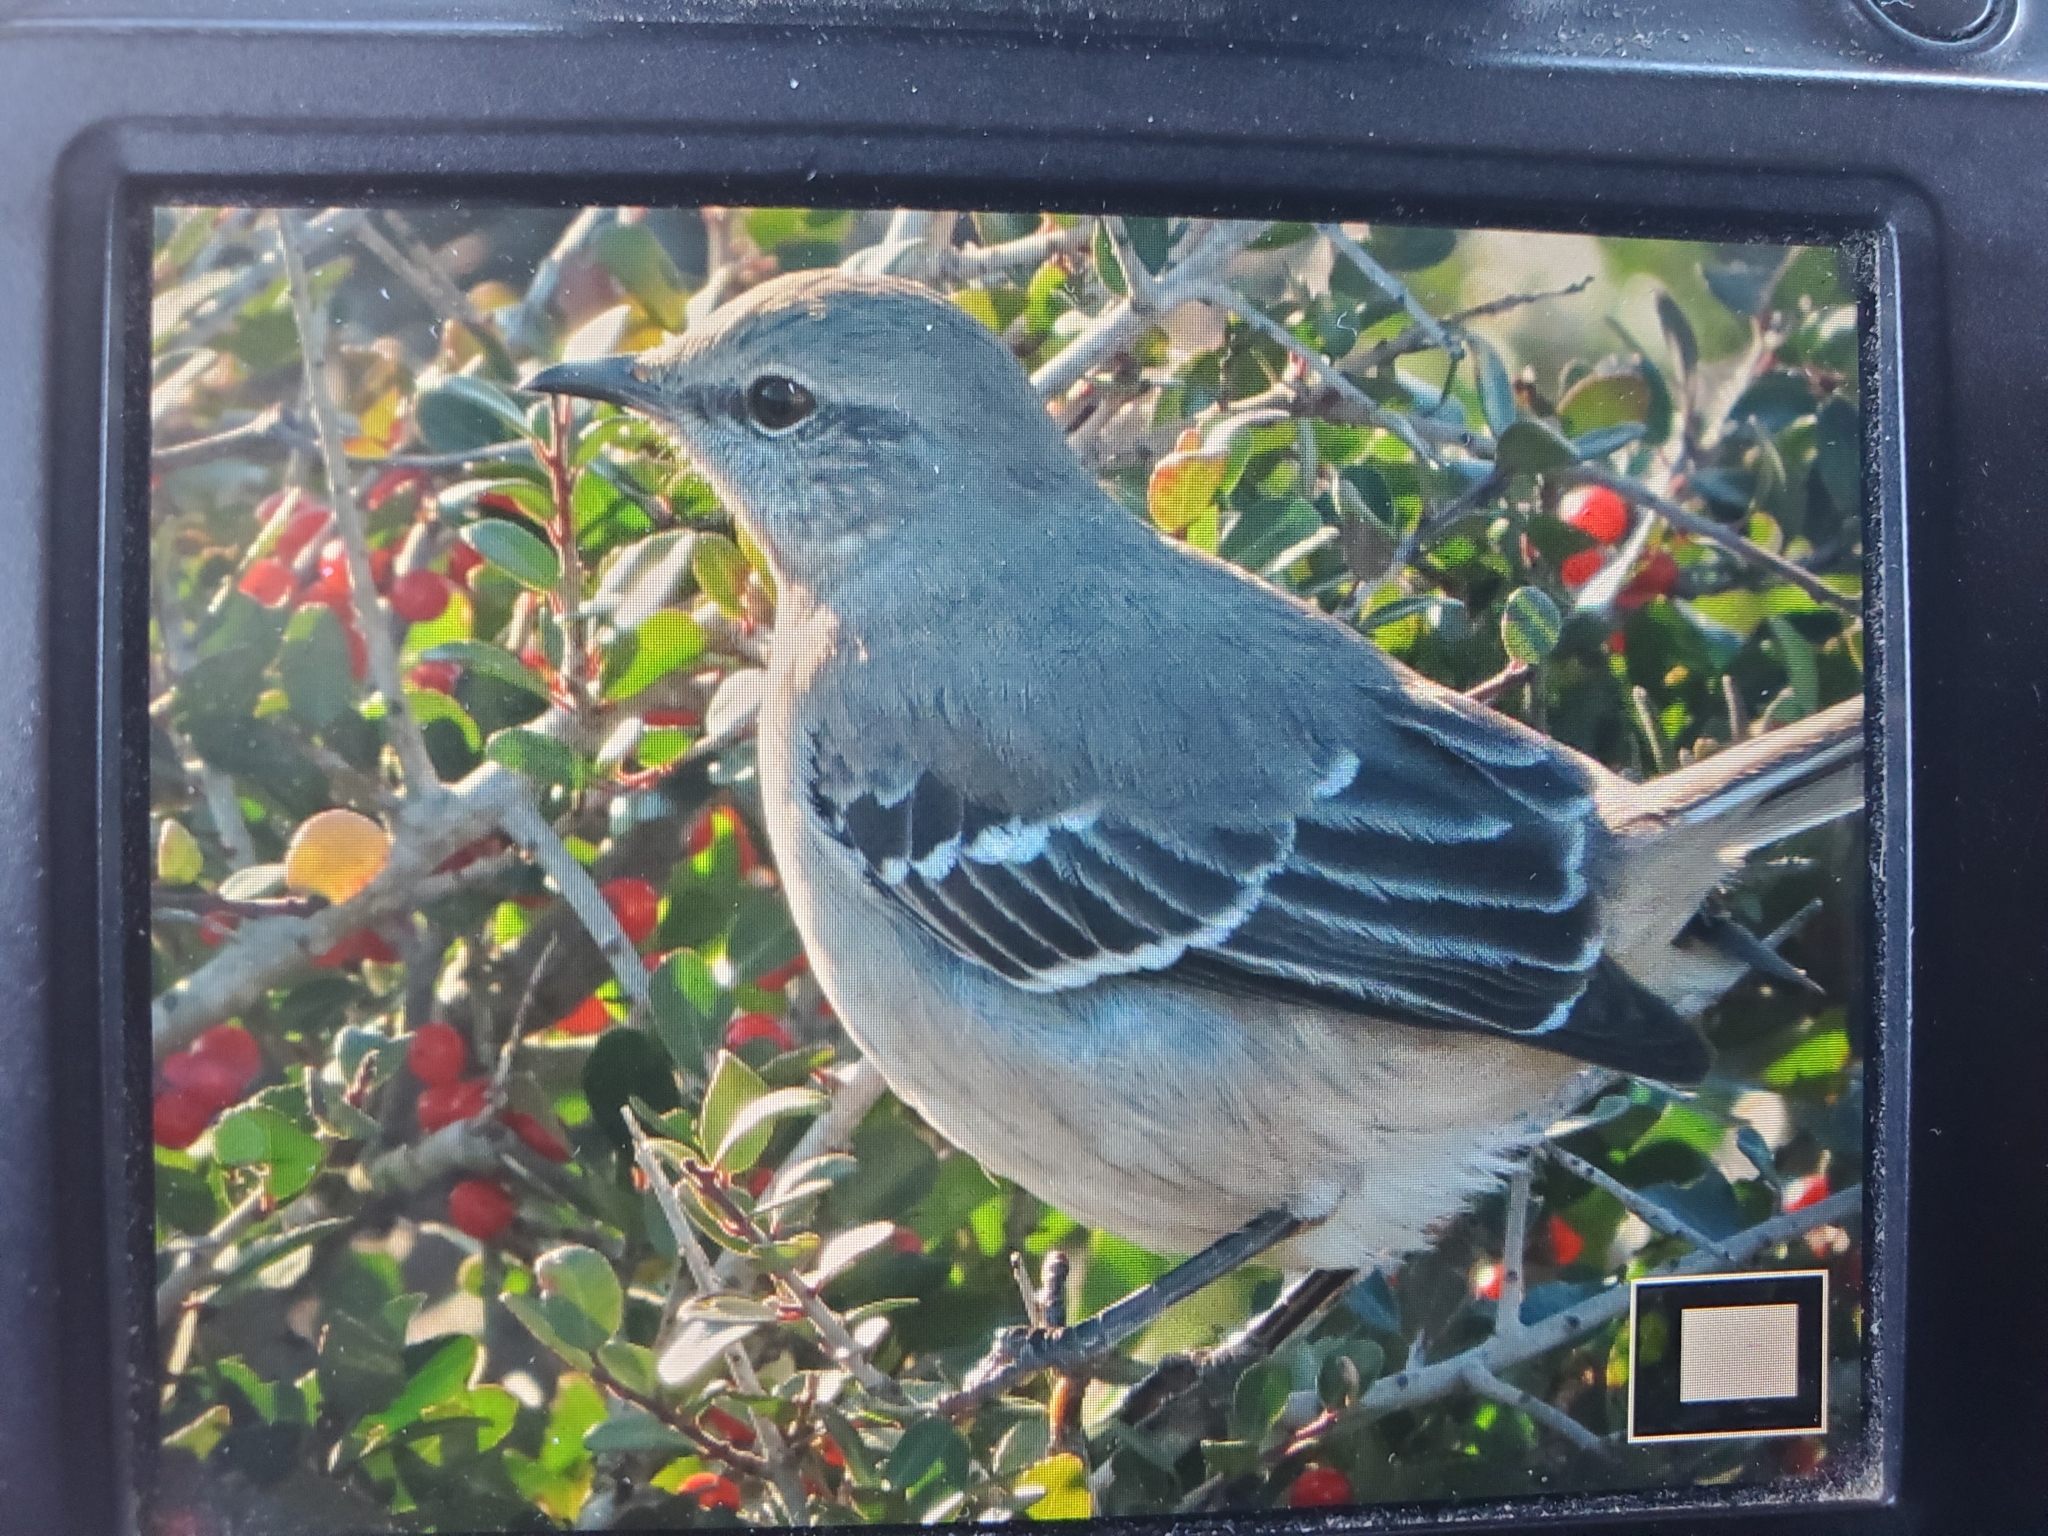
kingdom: Animalia
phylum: Chordata
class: Aves
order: Passeriformes
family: Mimidae
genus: Mimus
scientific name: Mimus polyglottos
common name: Northern mockingbird
